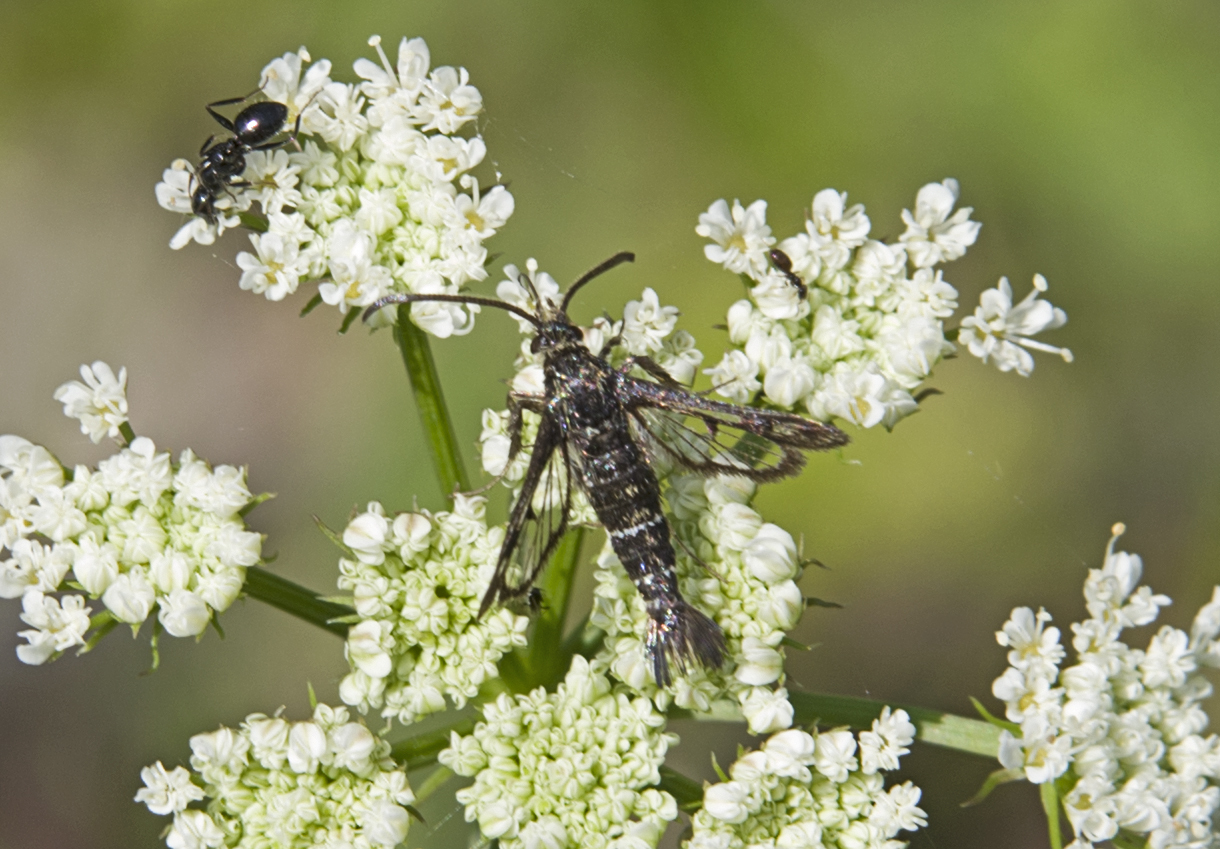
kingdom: Animalia
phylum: Arthropoda
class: Insecta
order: Lepidoptera
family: Sesiidae
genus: Pyropteron
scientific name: Pyropteron mannii
